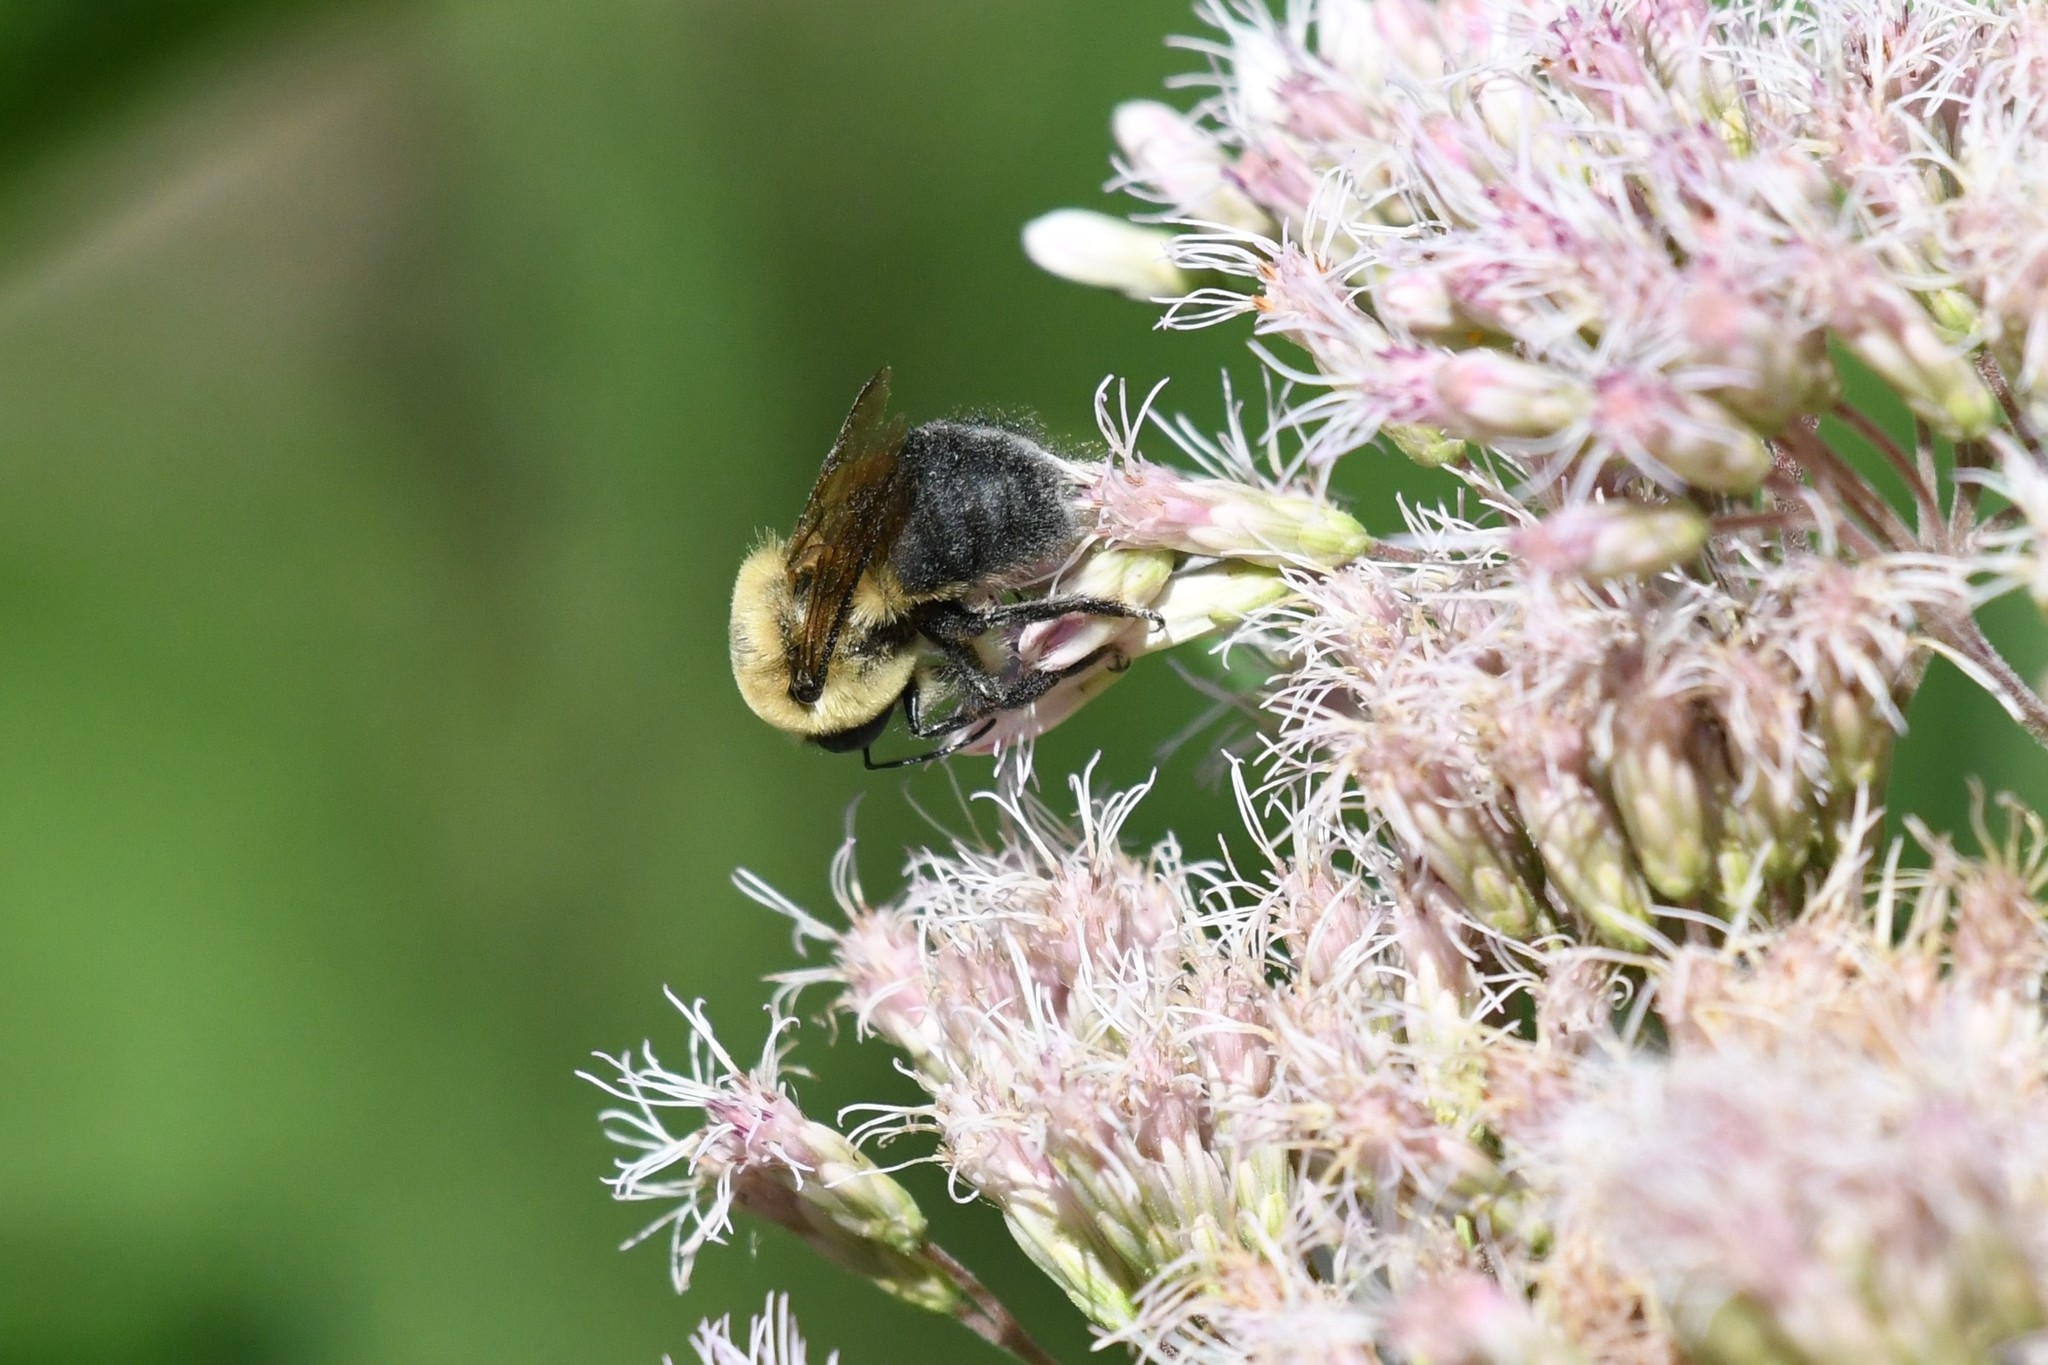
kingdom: Animalia
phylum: Arthropoda
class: Insecta
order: Hymenoptera
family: Apidae
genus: Bombus
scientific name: Bombus griseocollis
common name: Brown-belted bumble bee
